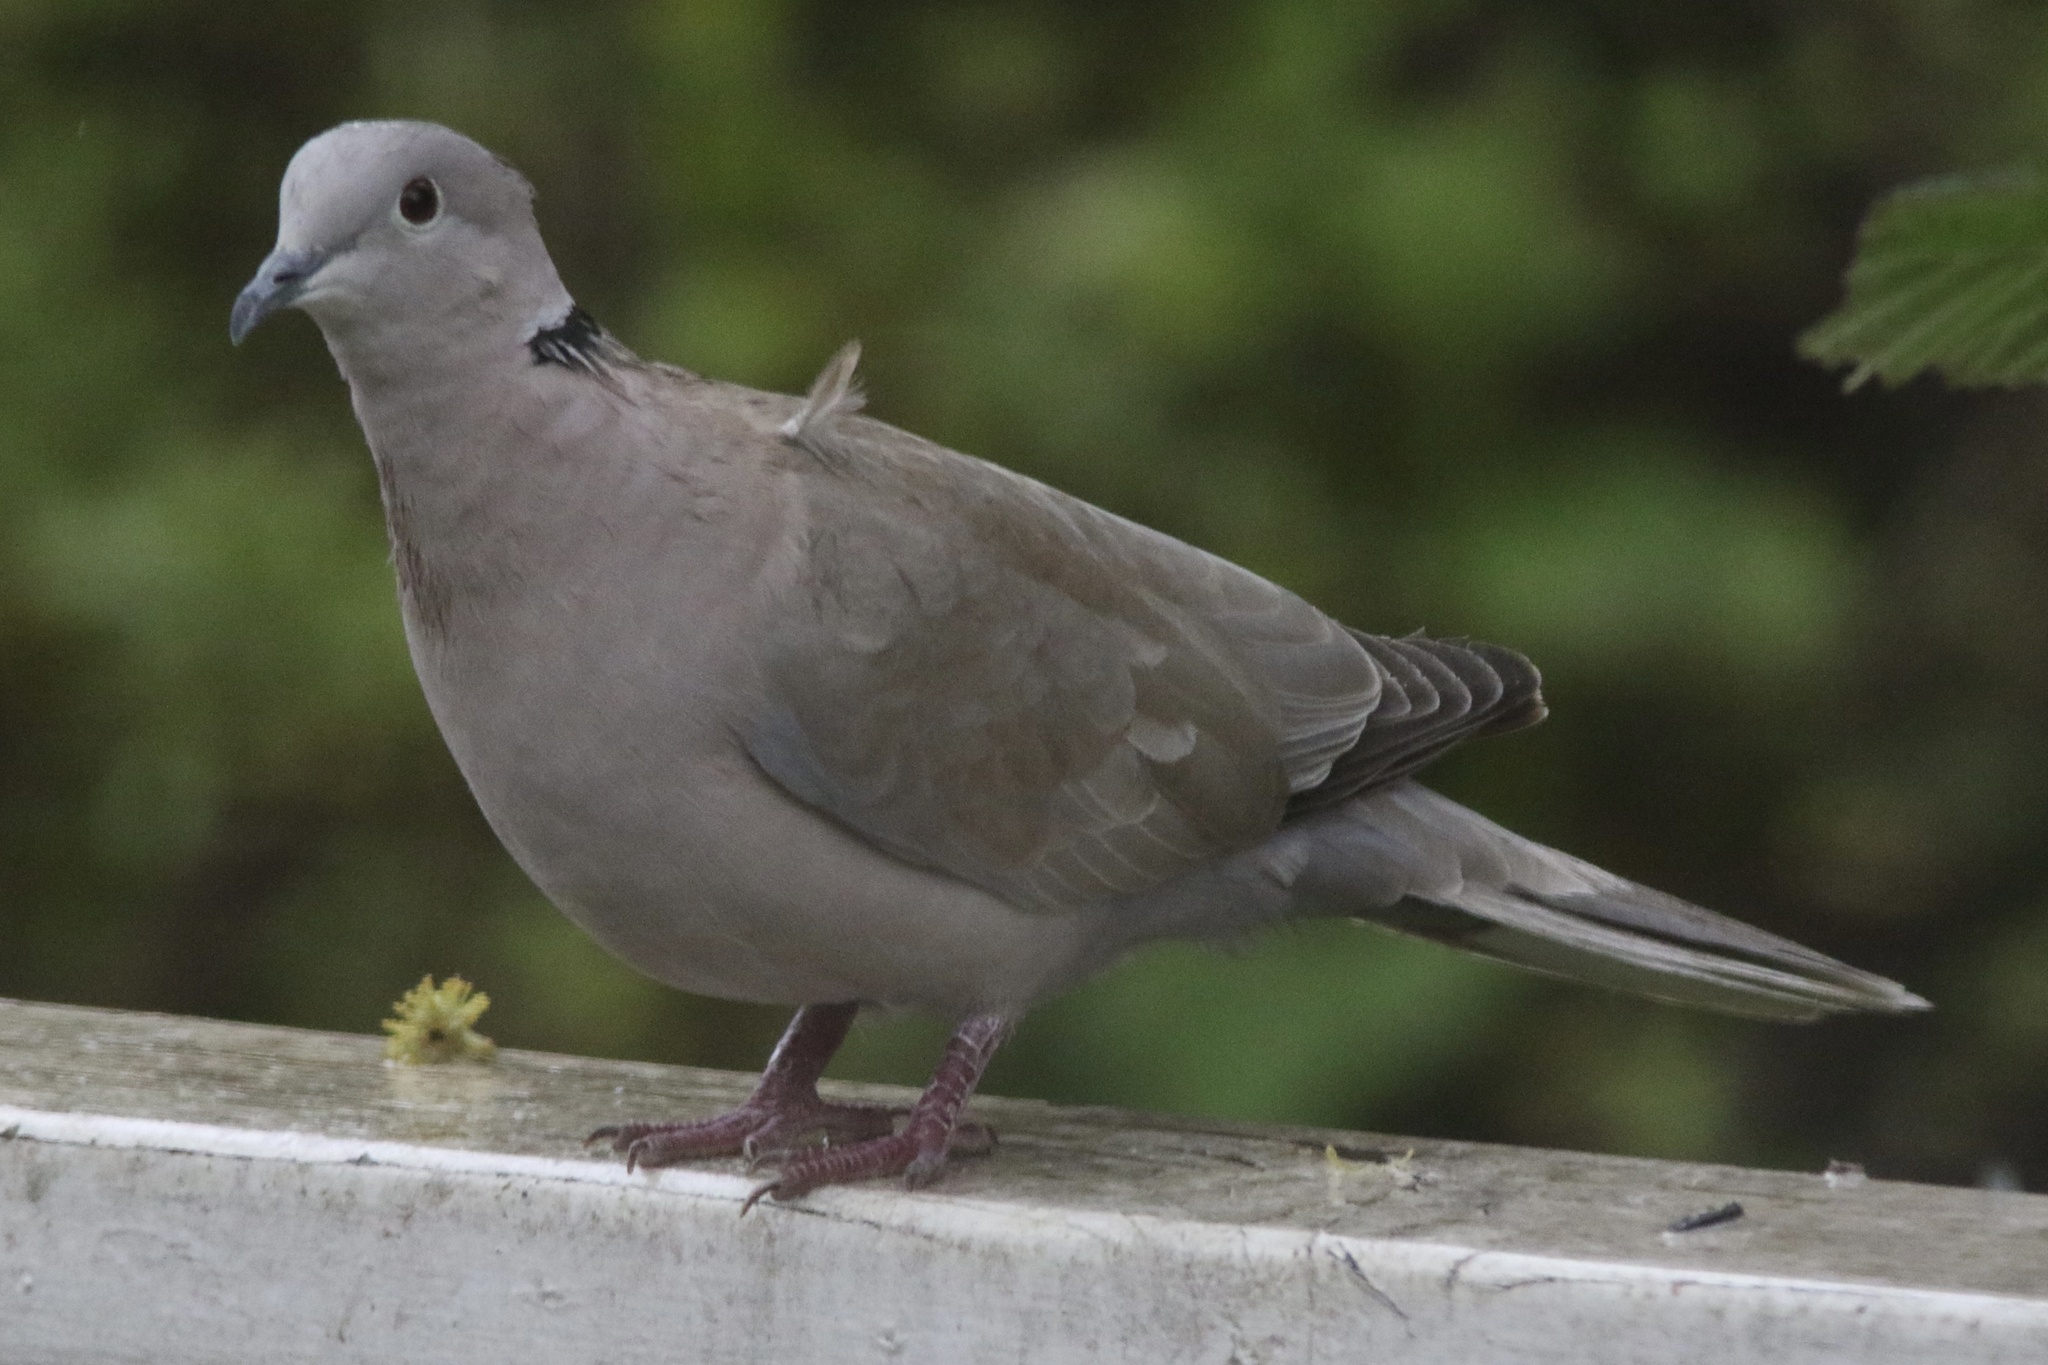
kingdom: Animalia
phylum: Chordata
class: Aves
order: Columbiformes
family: Columbidae
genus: Streptopelia
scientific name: Streptopelia decaocto
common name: Eurasian collared dove
